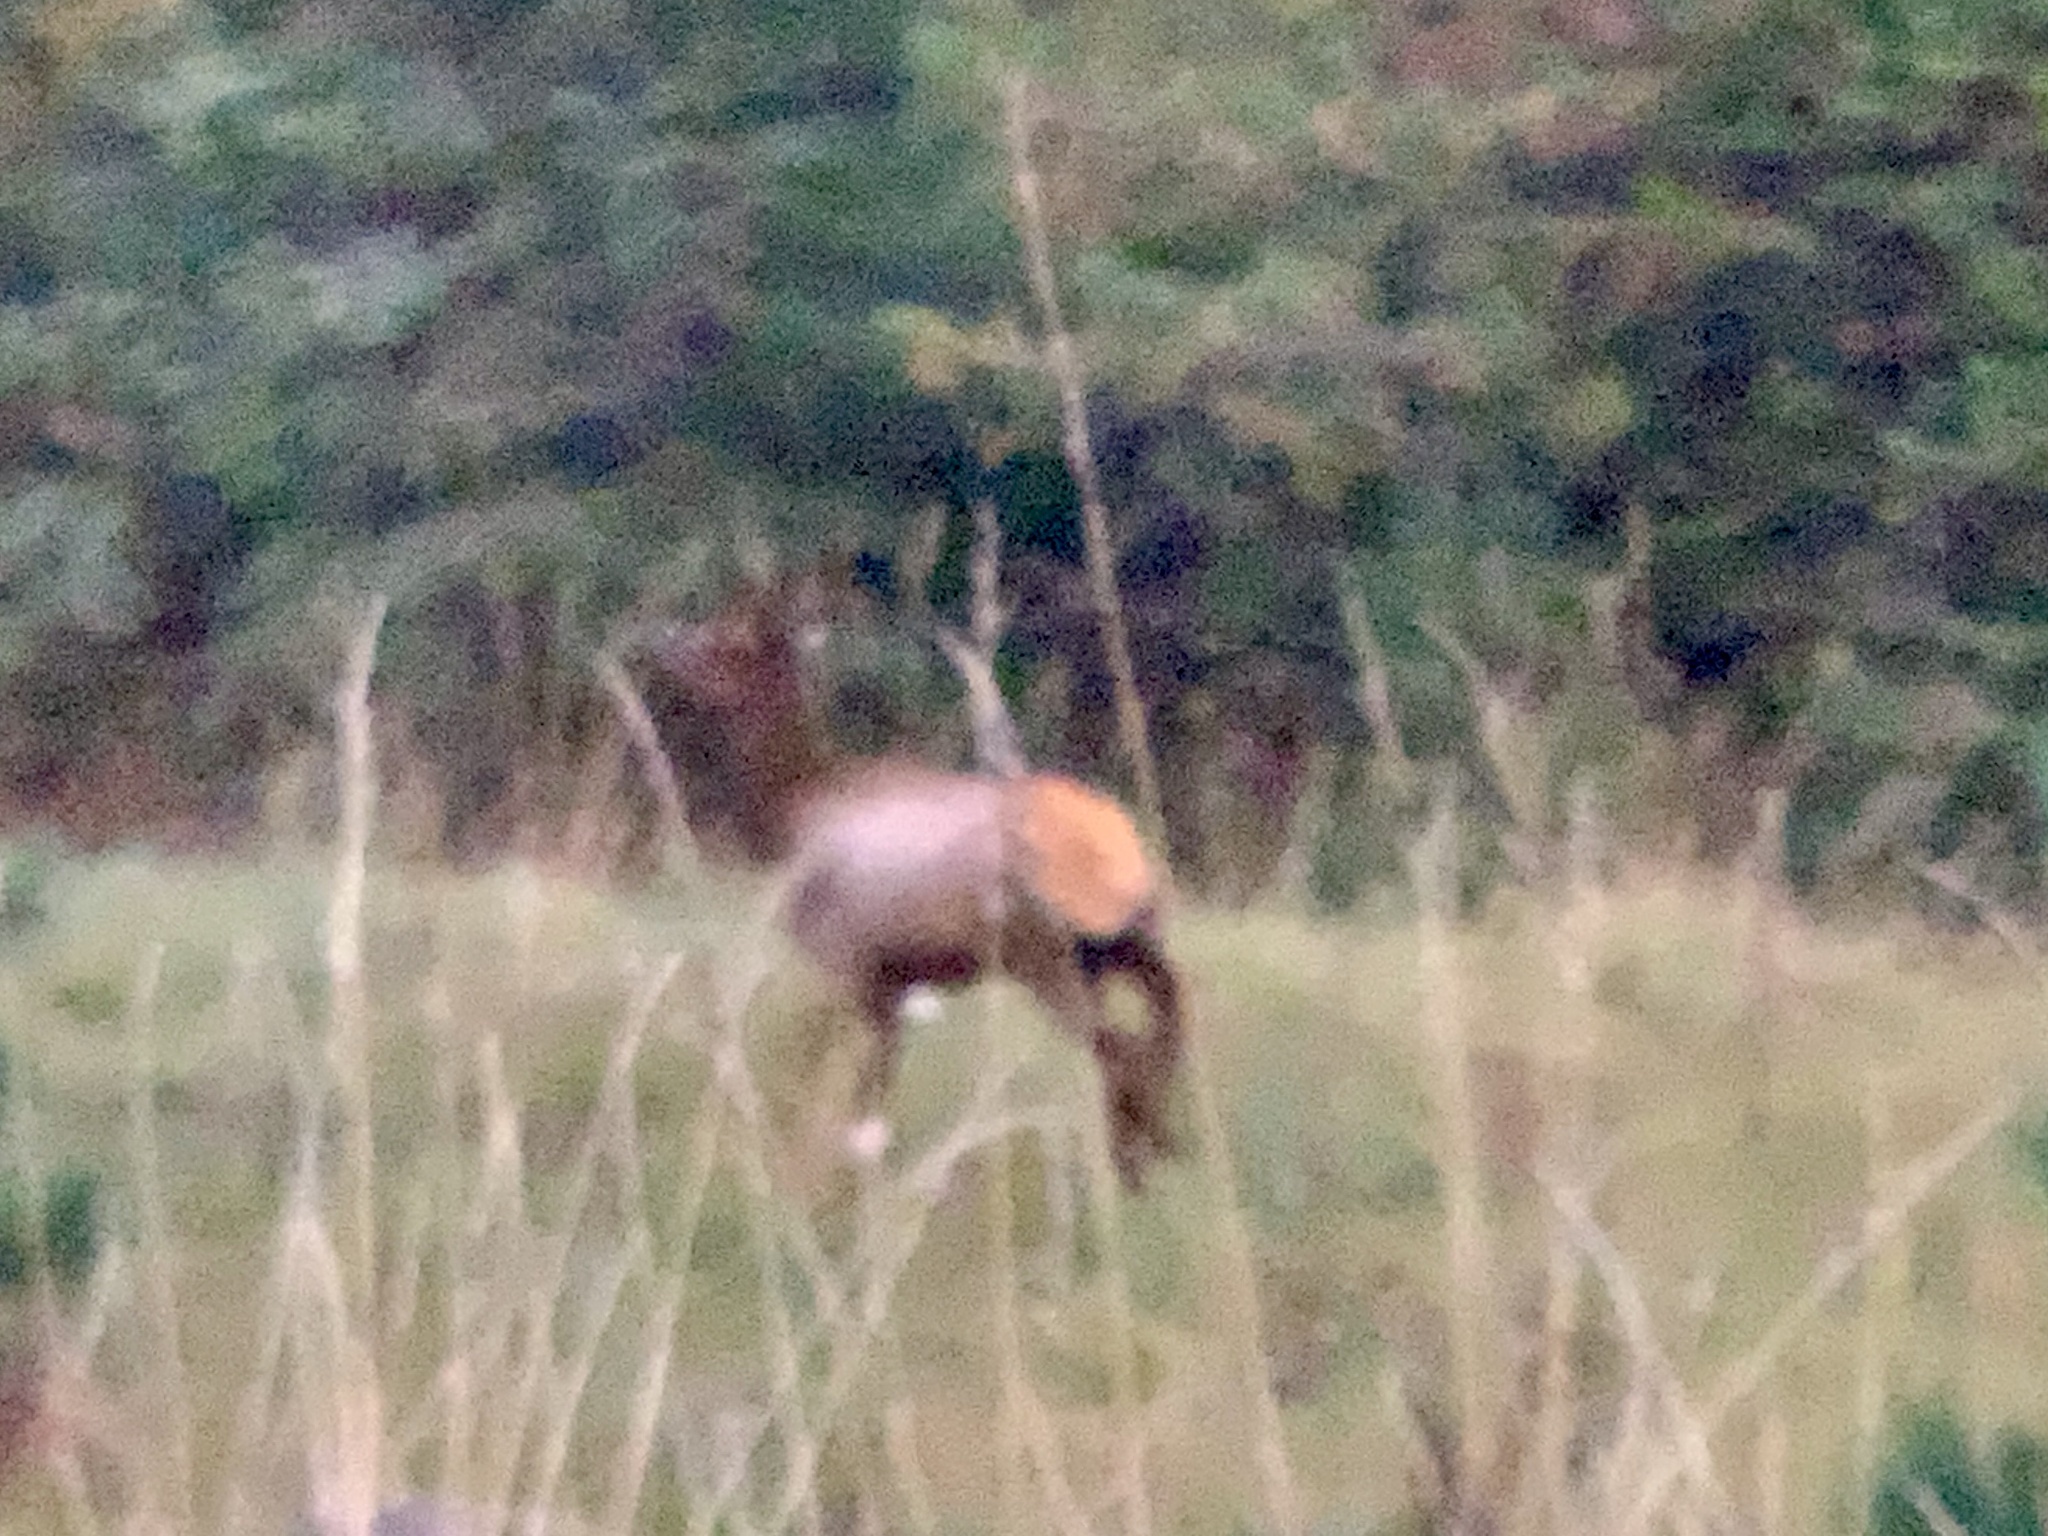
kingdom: Animalia
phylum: Chordata
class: Mammalia
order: Artiodactyla
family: Cervidae
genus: Cervus
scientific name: Cervus elaphus
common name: Red deer
